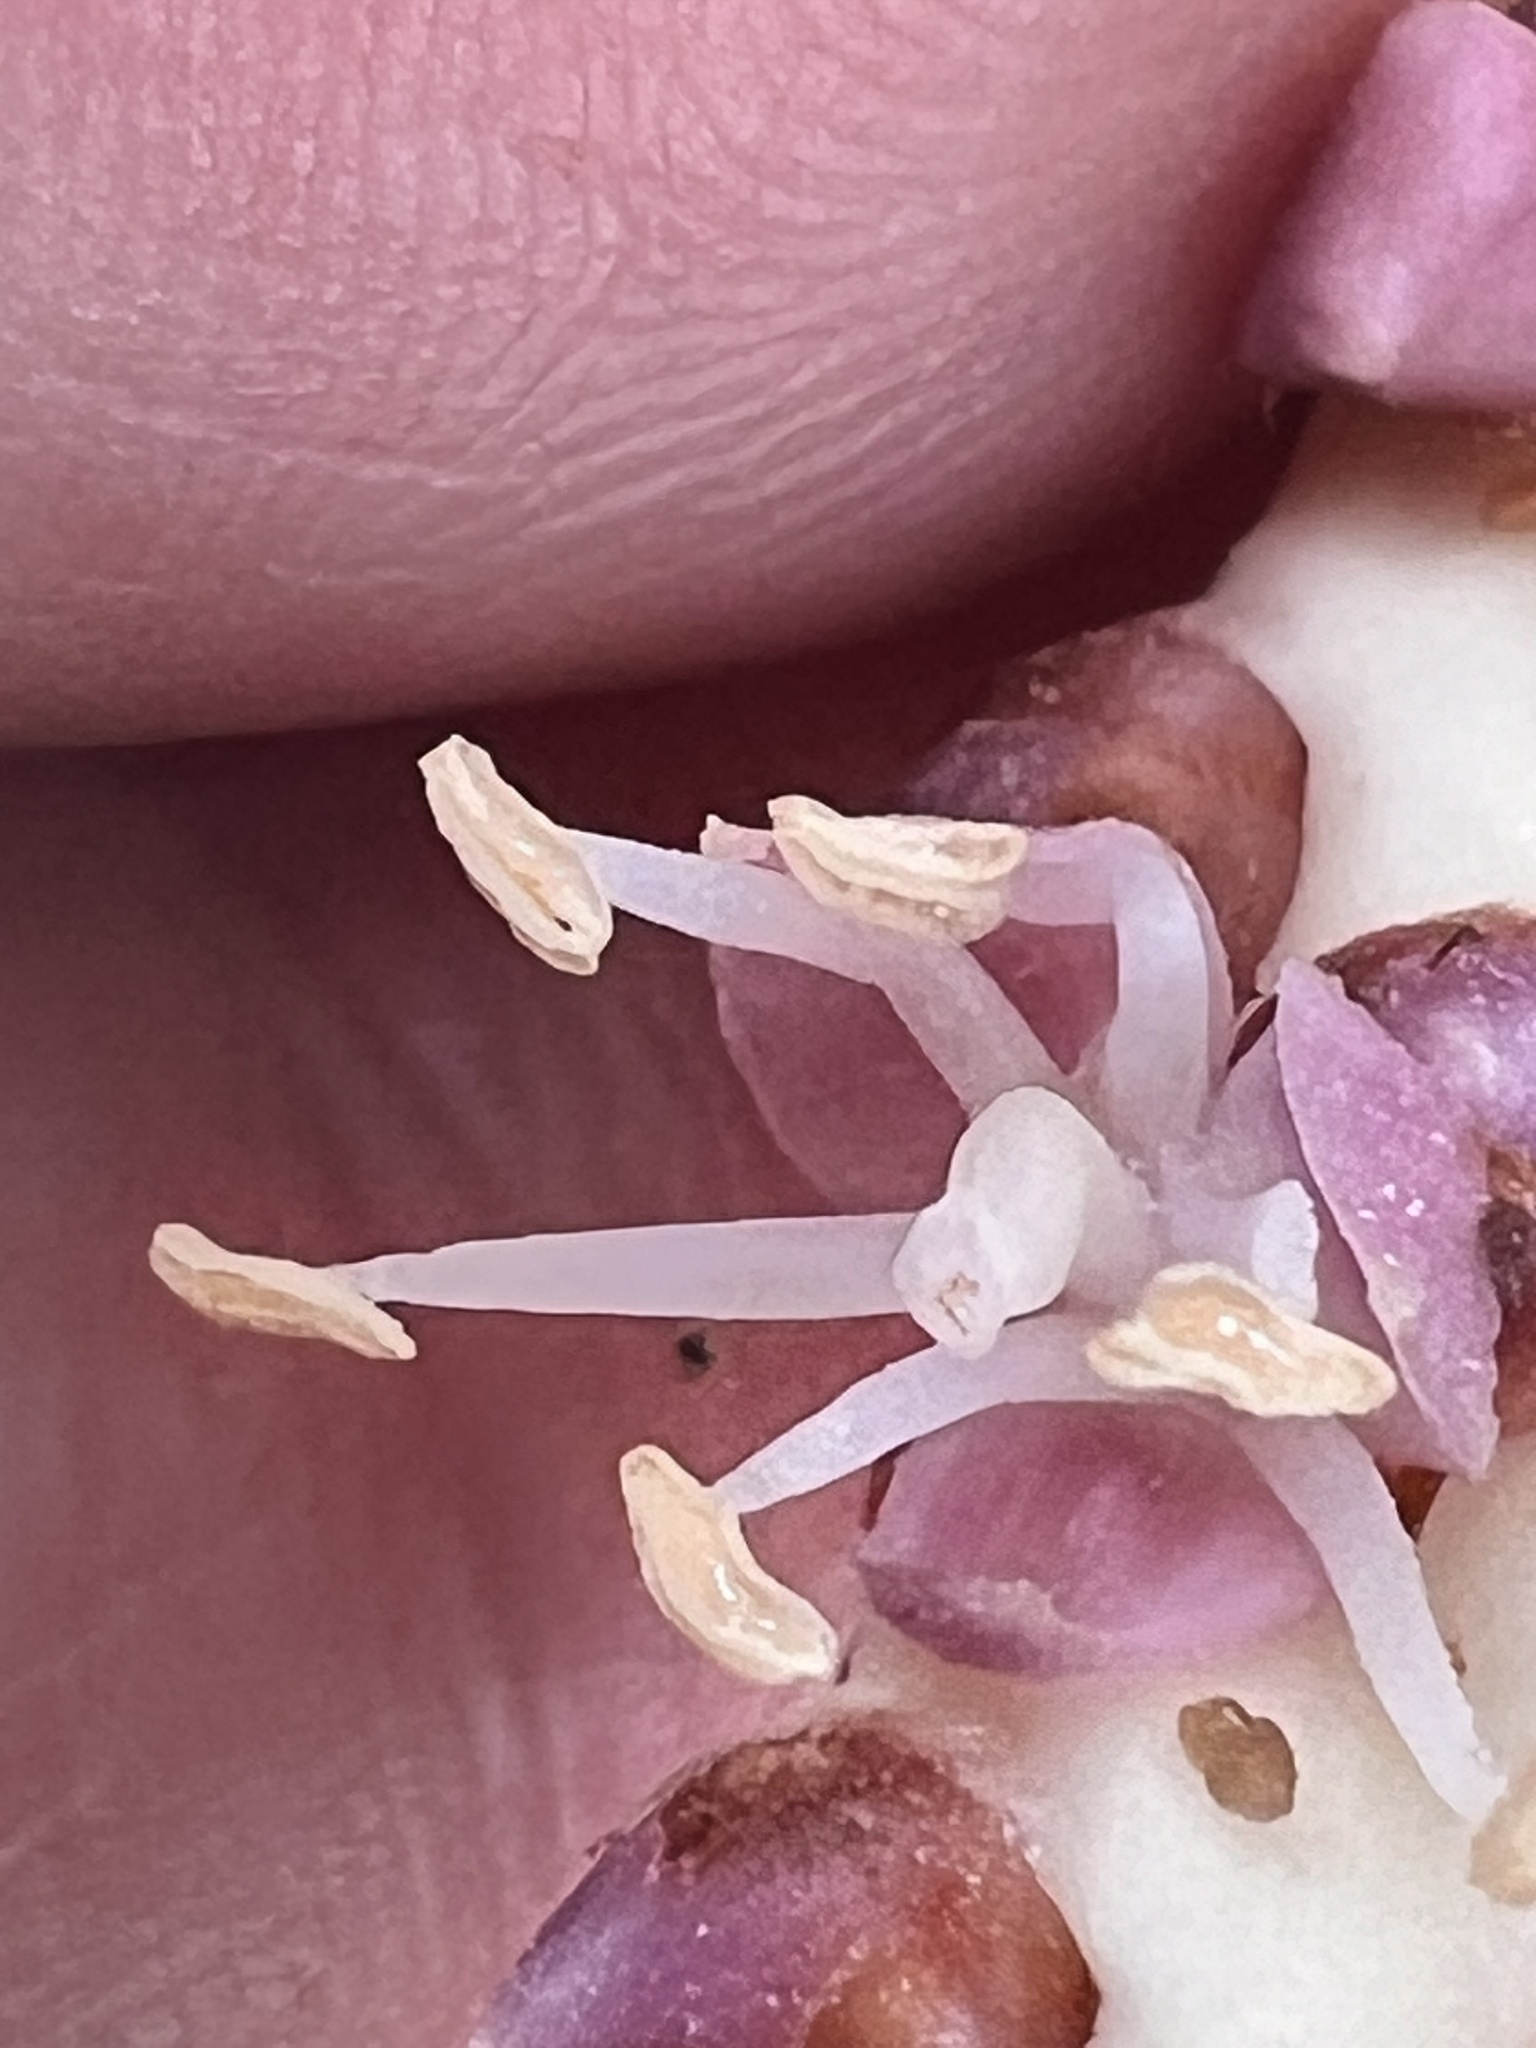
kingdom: Plantae
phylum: Tracheophyta
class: Liliopsida
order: Arecales
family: Arecaceae
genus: Rhopalostylis
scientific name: Rhopalostylis sapida
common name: Feather-duster palm
